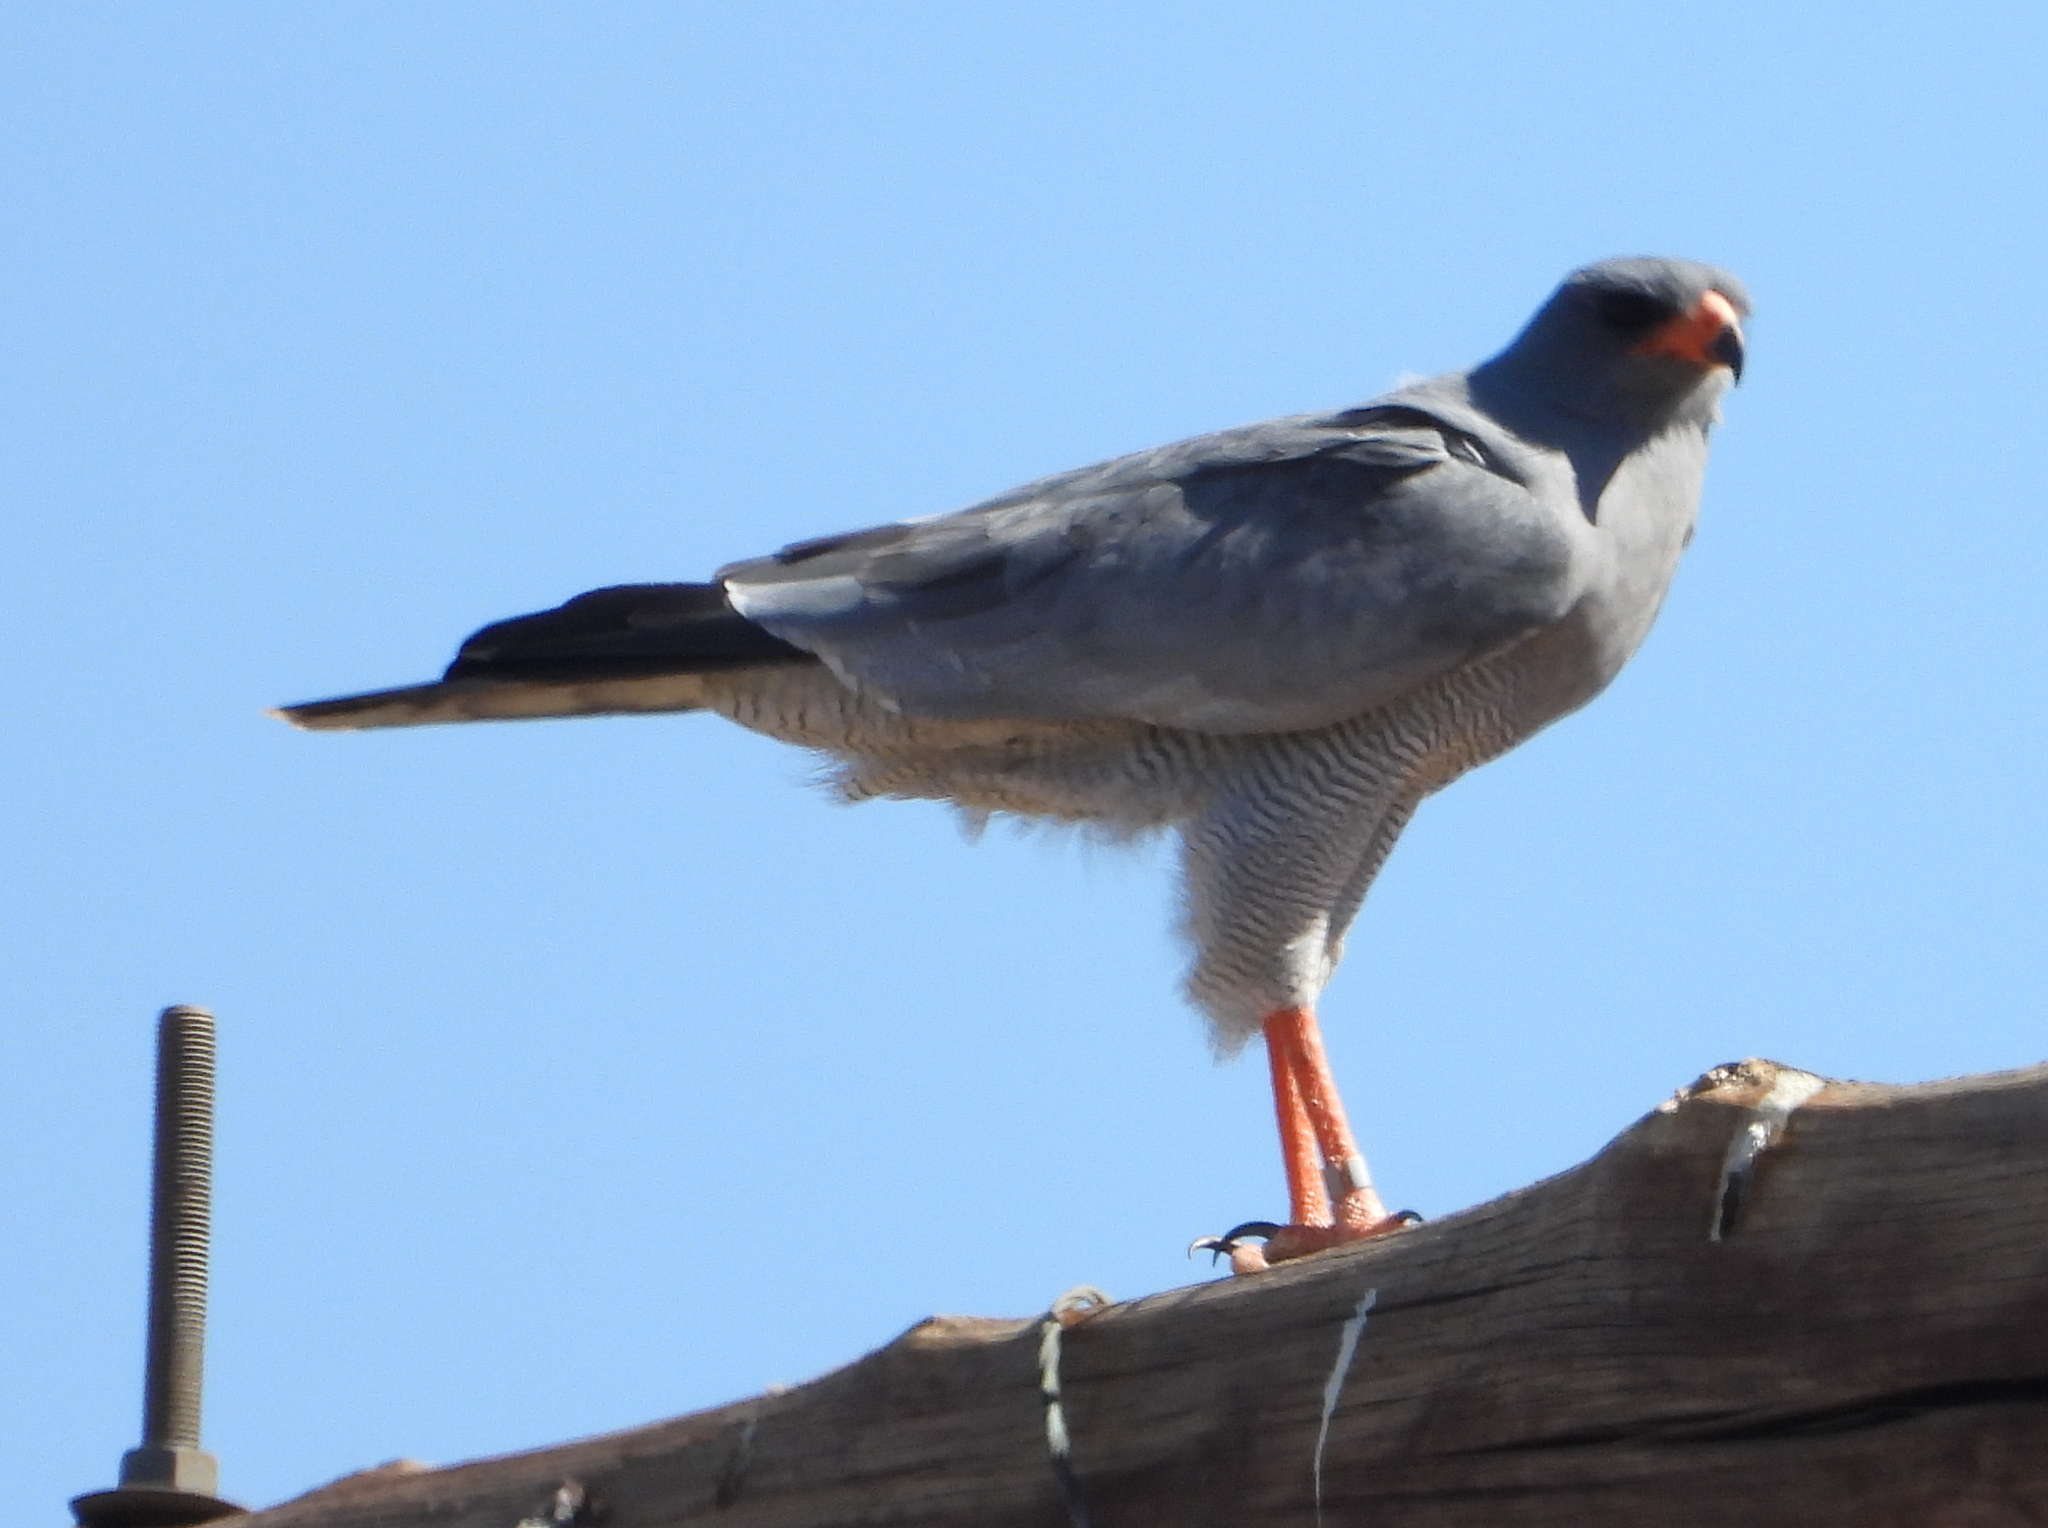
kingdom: Animalia
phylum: Chordata
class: Aves
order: Accipitriformes
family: Accipitridae
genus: Melierax
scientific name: Melierax canorus
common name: Pale chanting-goshawk
